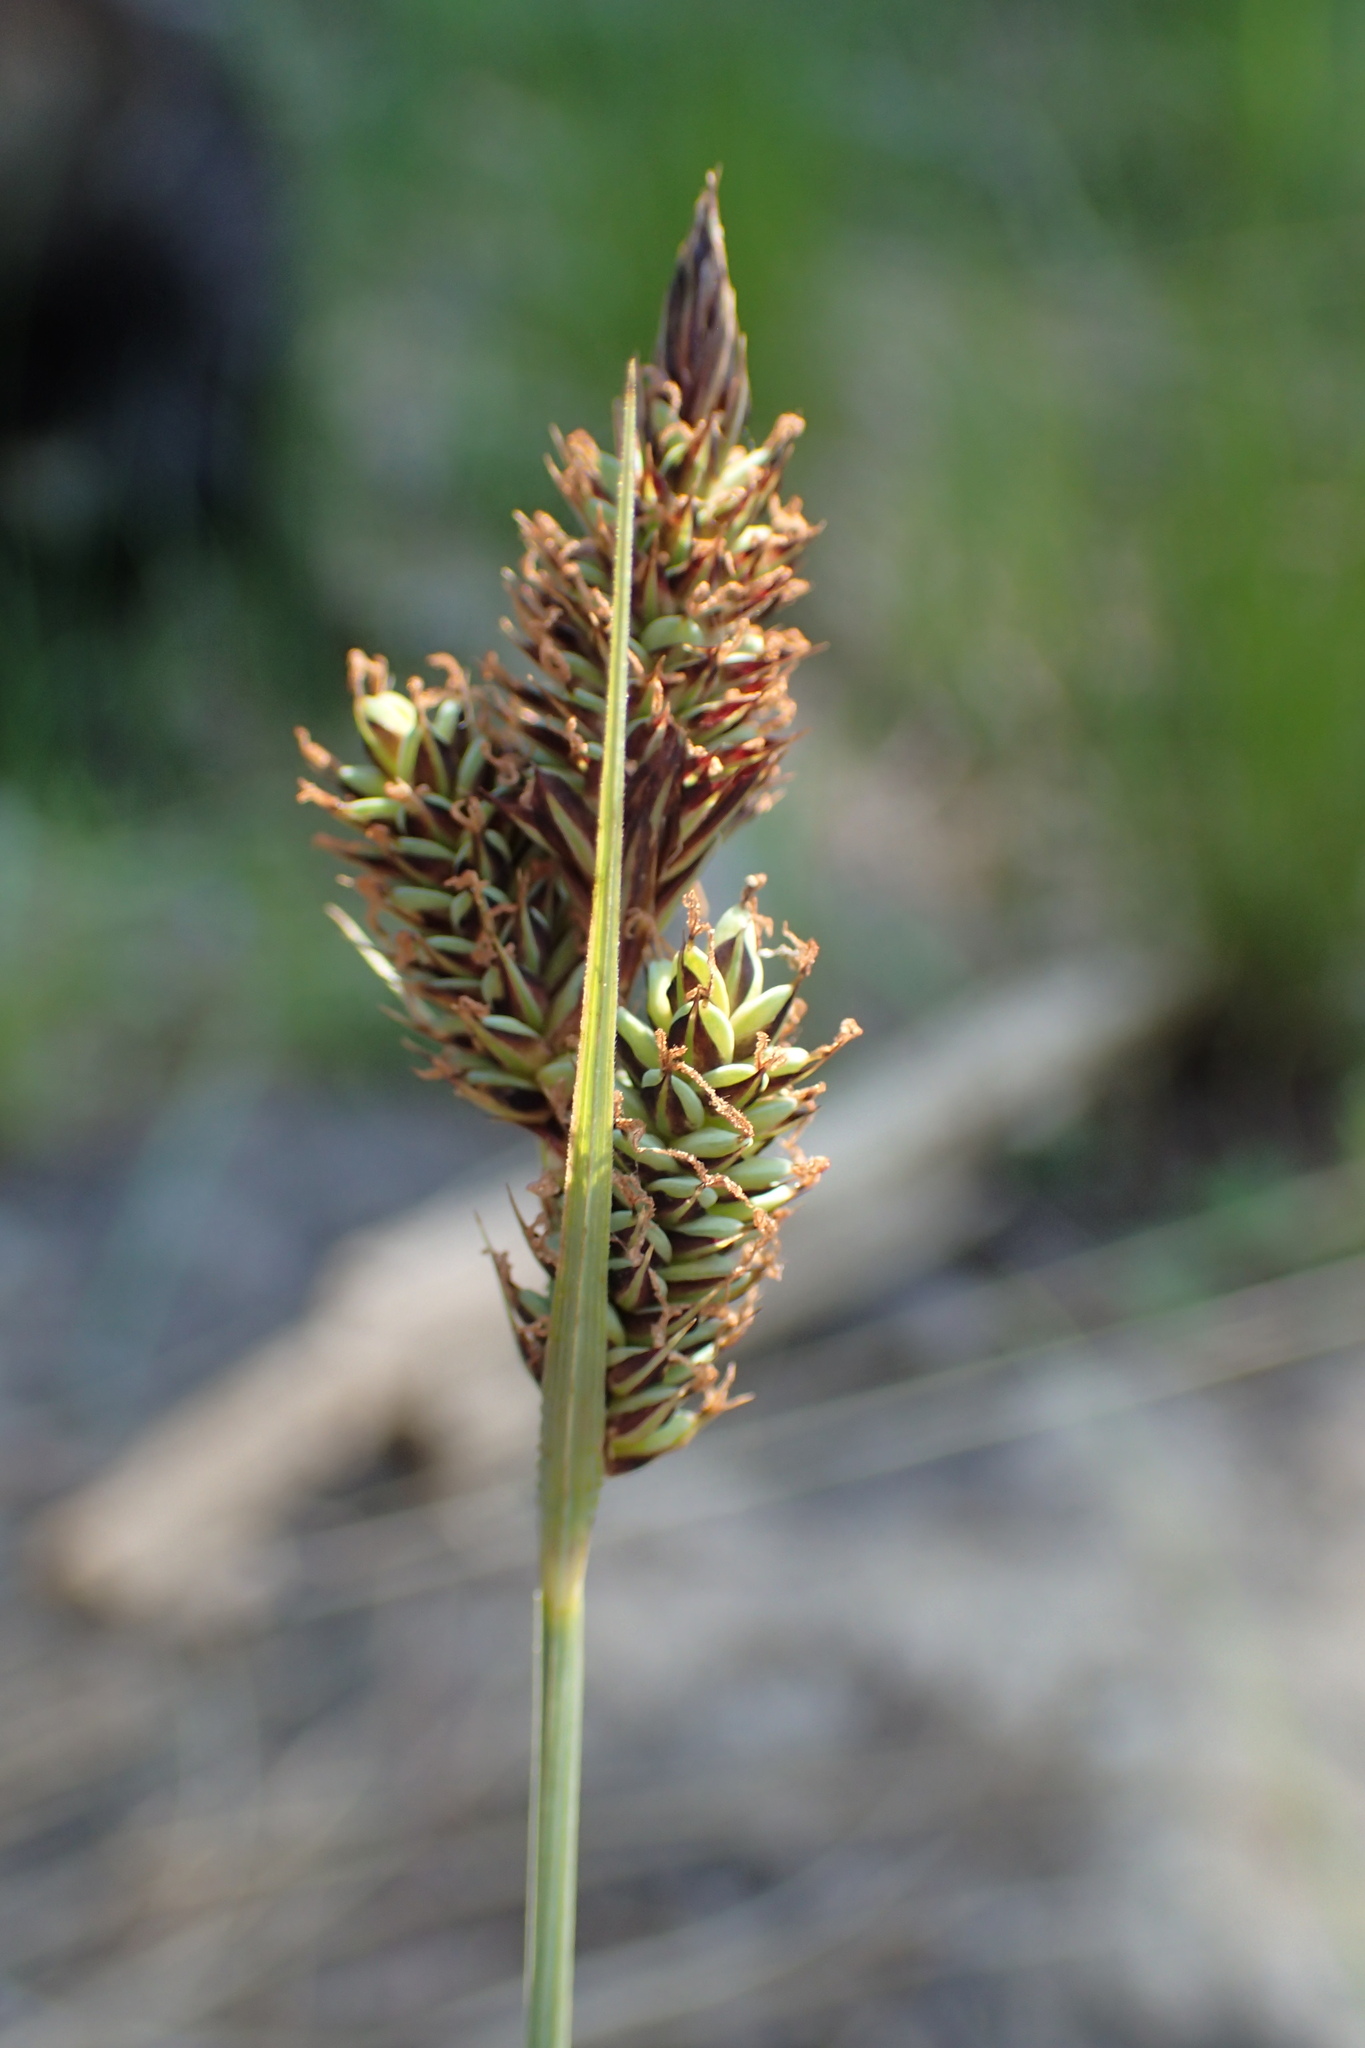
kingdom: Plantae
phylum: Tracheophyta
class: Liliopsida
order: Poales
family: Cyperaceae
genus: Carex
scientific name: Carex buxbaumii
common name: Club sedge
